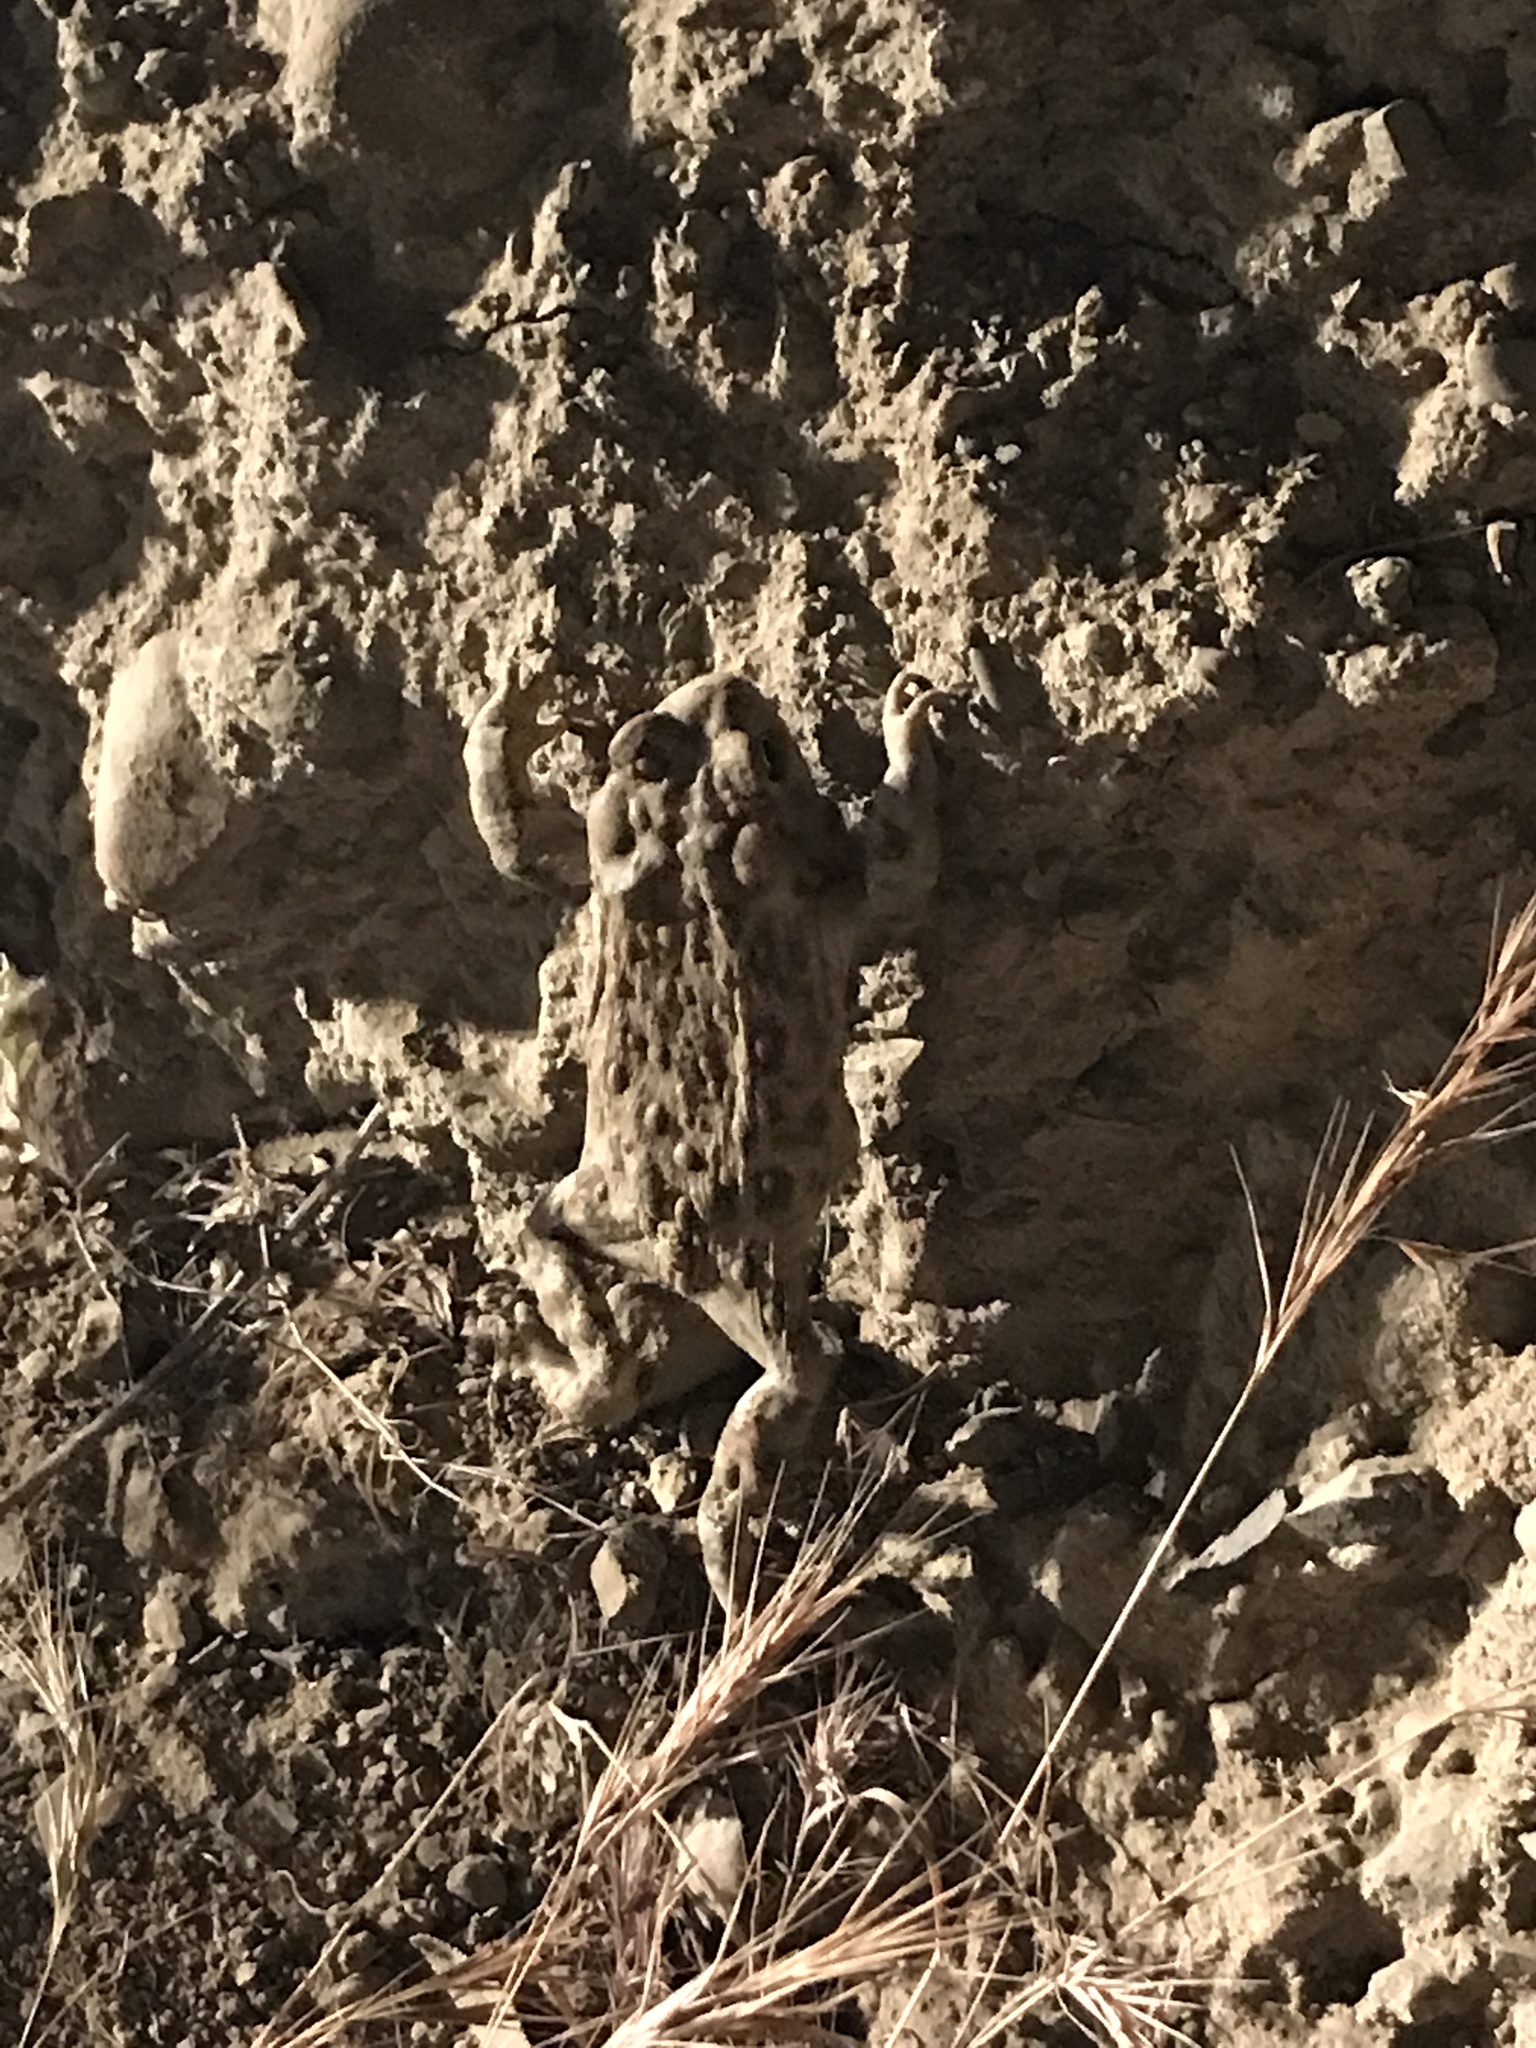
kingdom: Animalia
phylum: Chordata
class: Amphibia
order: Anura
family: Bufonidae
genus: Anaxyrus
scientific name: Anaxyrus boreas
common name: Western toad
